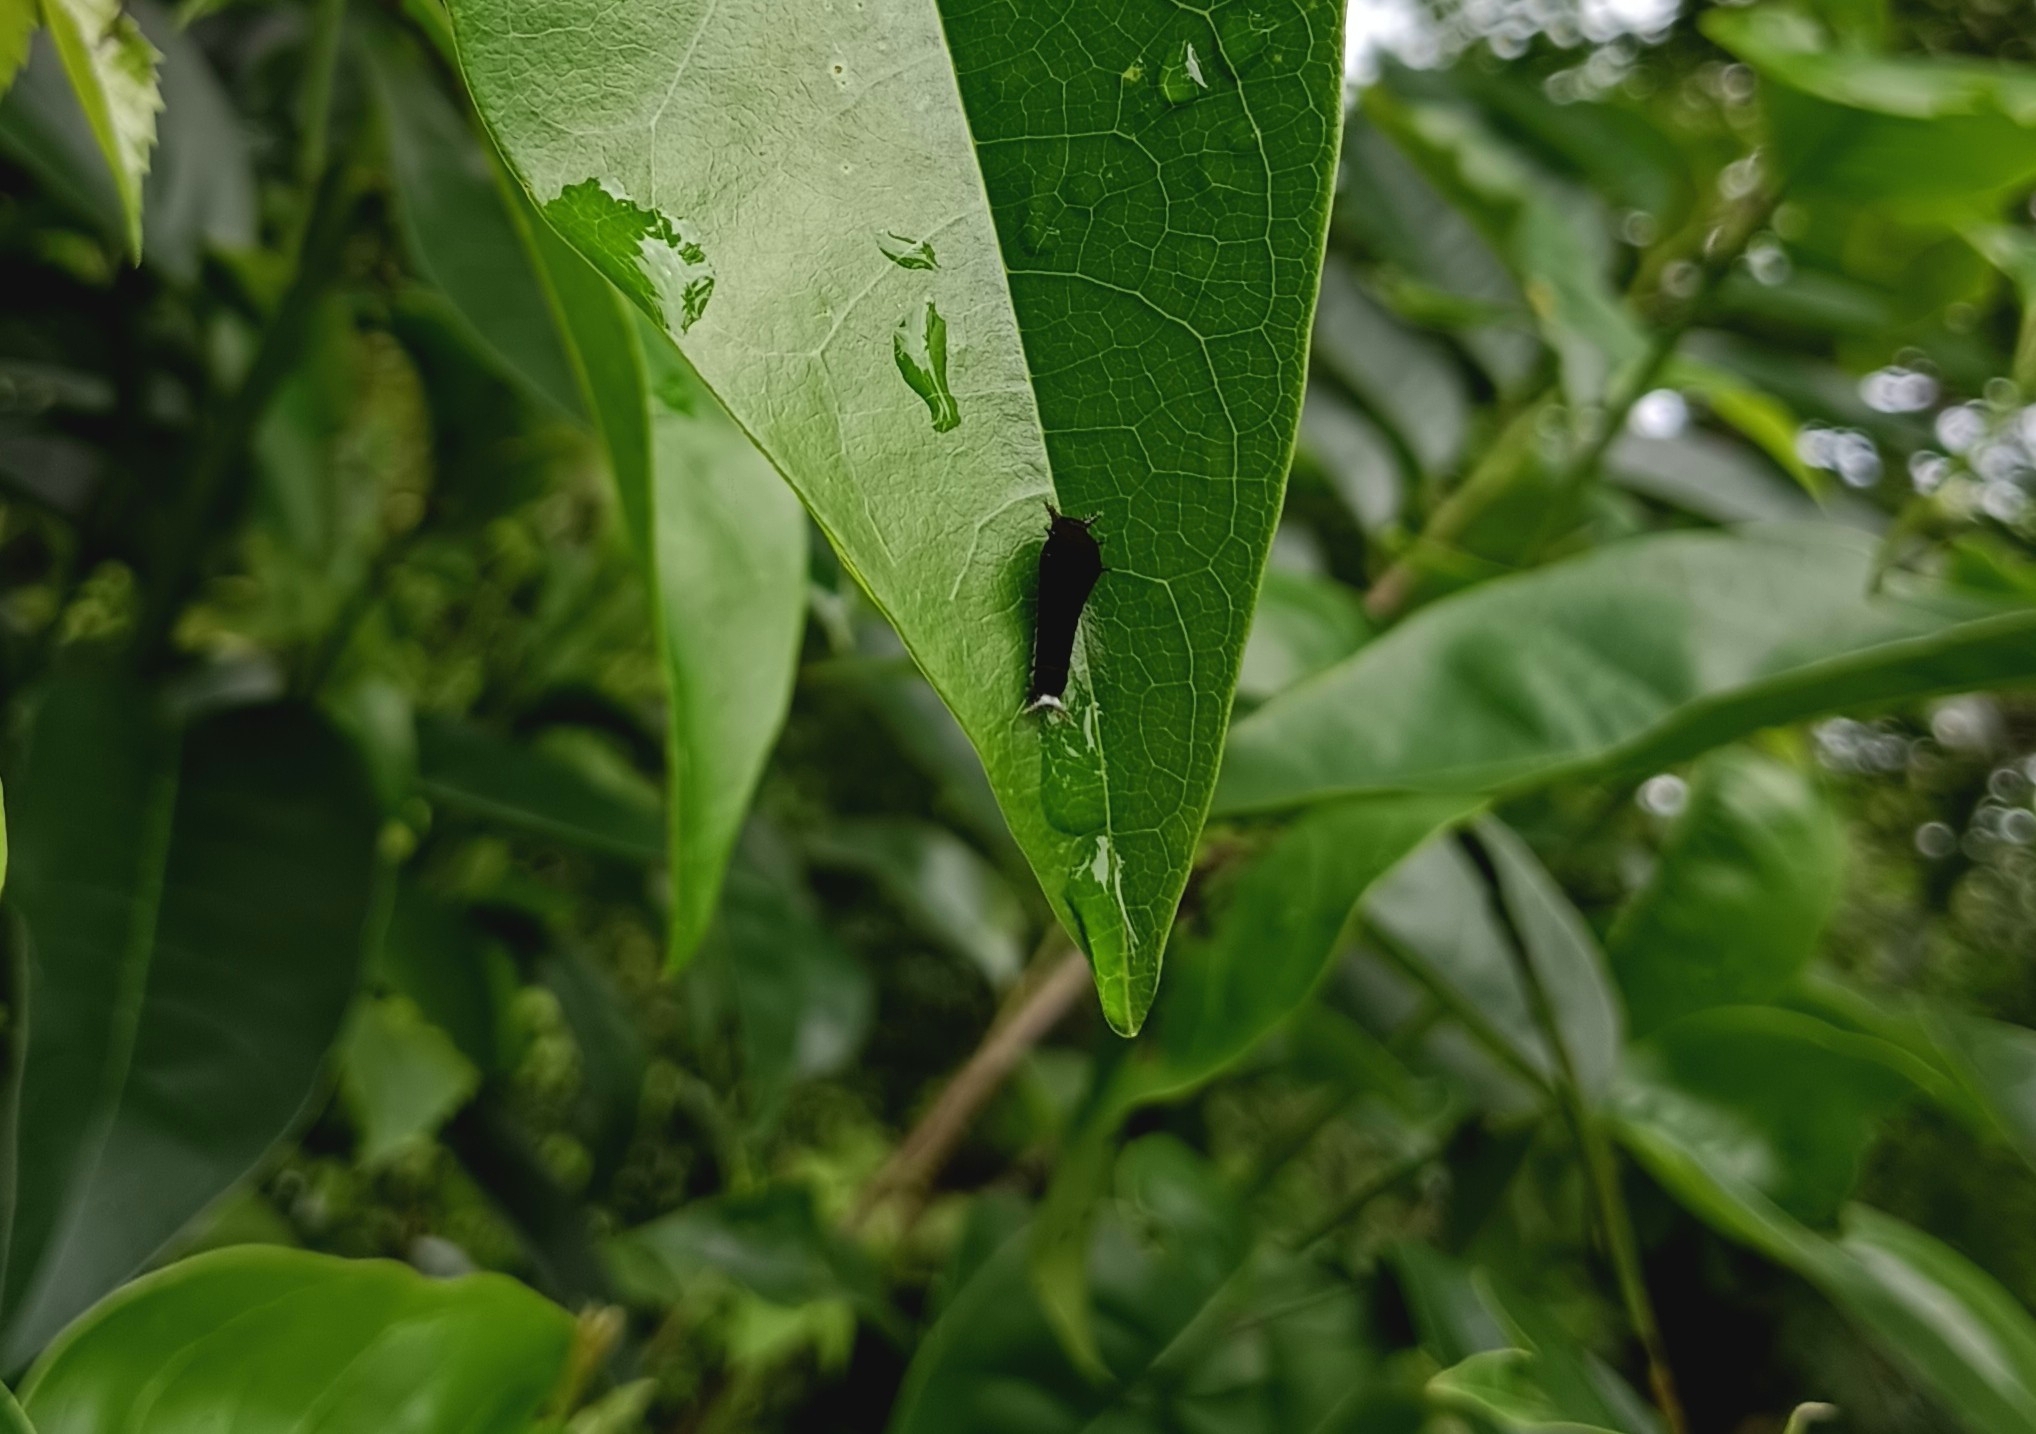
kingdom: Animalia
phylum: Arthropoda
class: Insecta
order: Lepidoptera
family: Papilionidae
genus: Graphium
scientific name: Graphium doson
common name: Common jay
